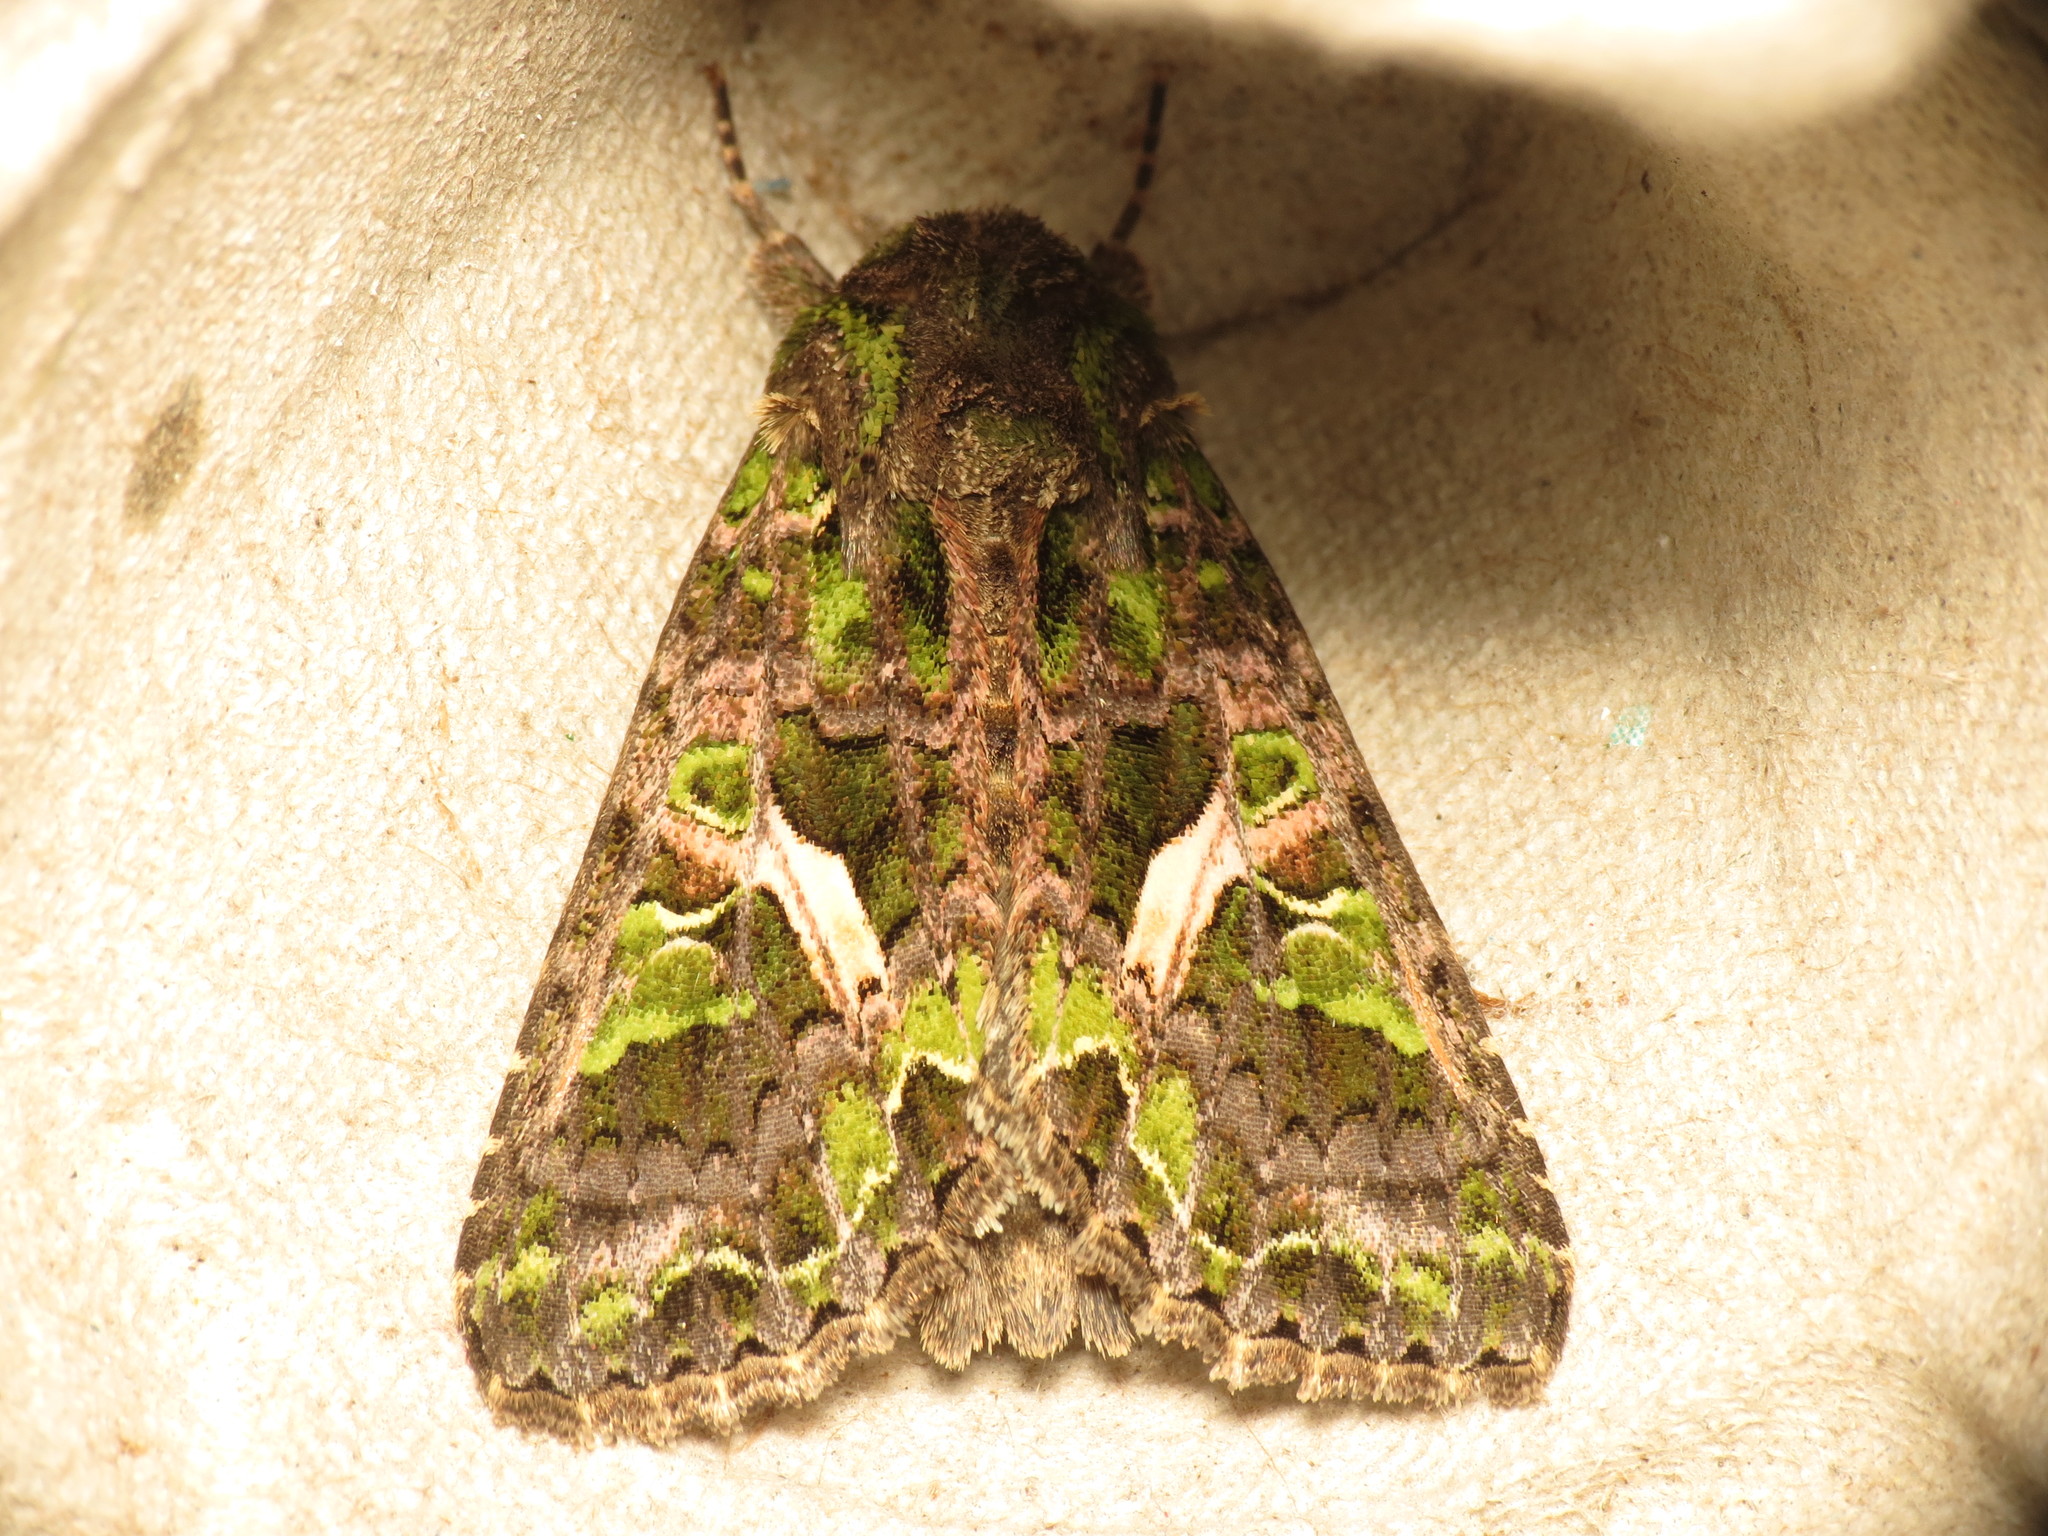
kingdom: Animalia
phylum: Arthropoda
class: Insecta
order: Lepidoptera
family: Noctuidae
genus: Trachea
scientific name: Trachea atriplicis
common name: Orache moth
